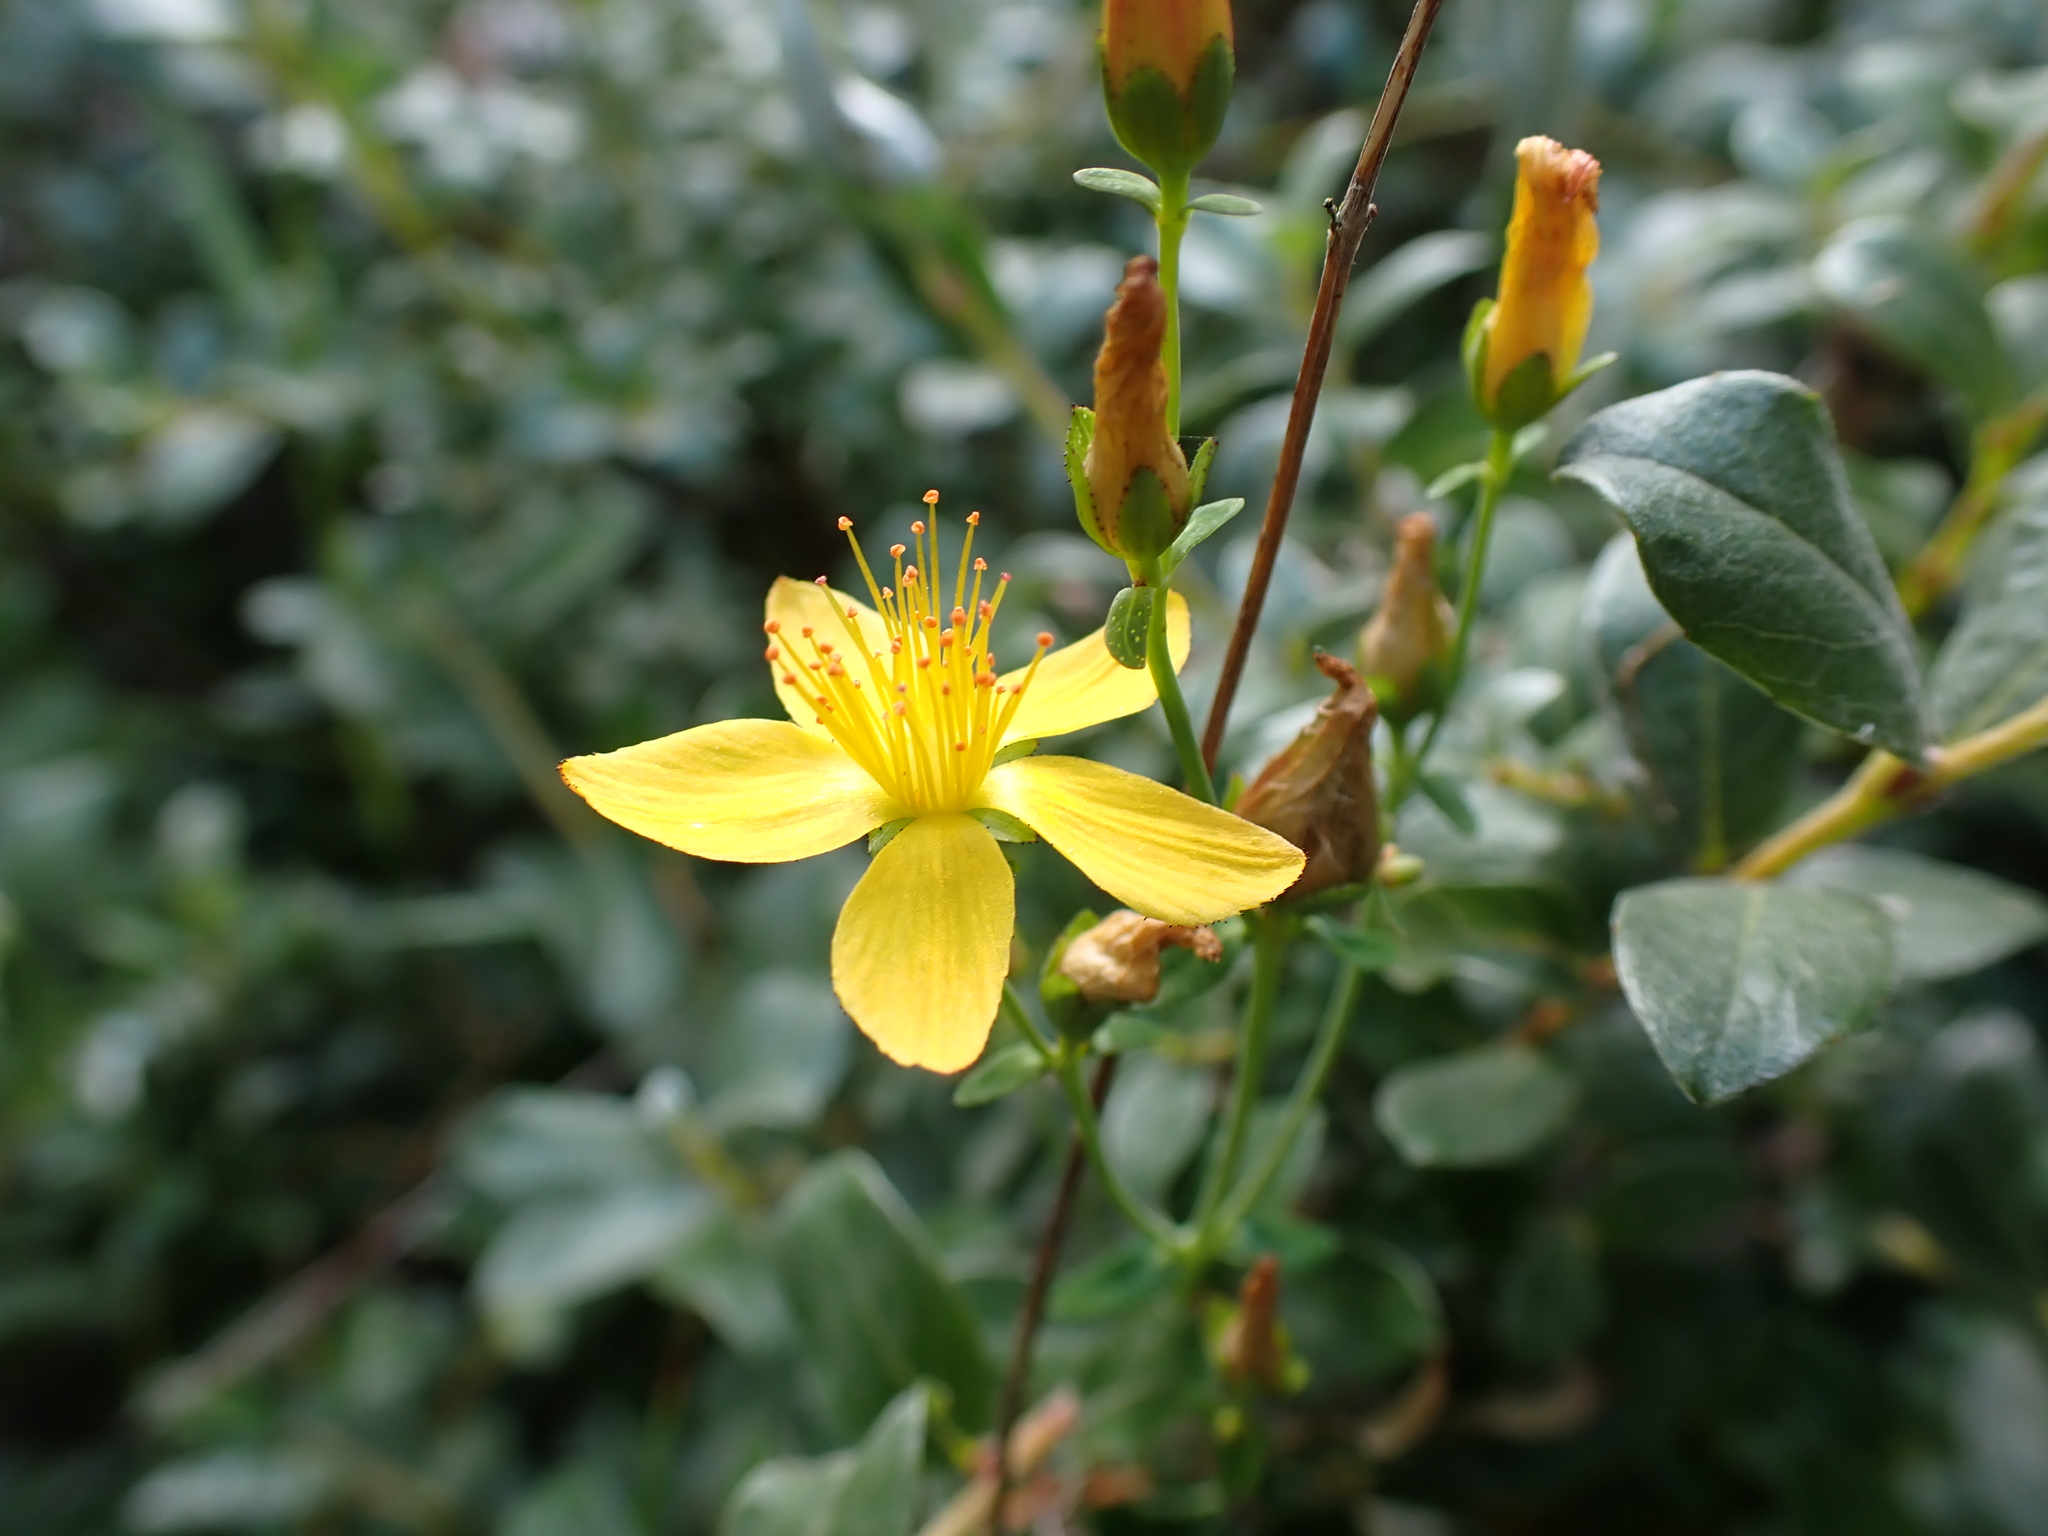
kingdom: Plantae
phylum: Tracheophyta
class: Magnoliopsida
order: Malpighiales
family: Hypericaceae
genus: Hypericum
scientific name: Hypericum pulchrum
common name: Slender st. john's-wort
